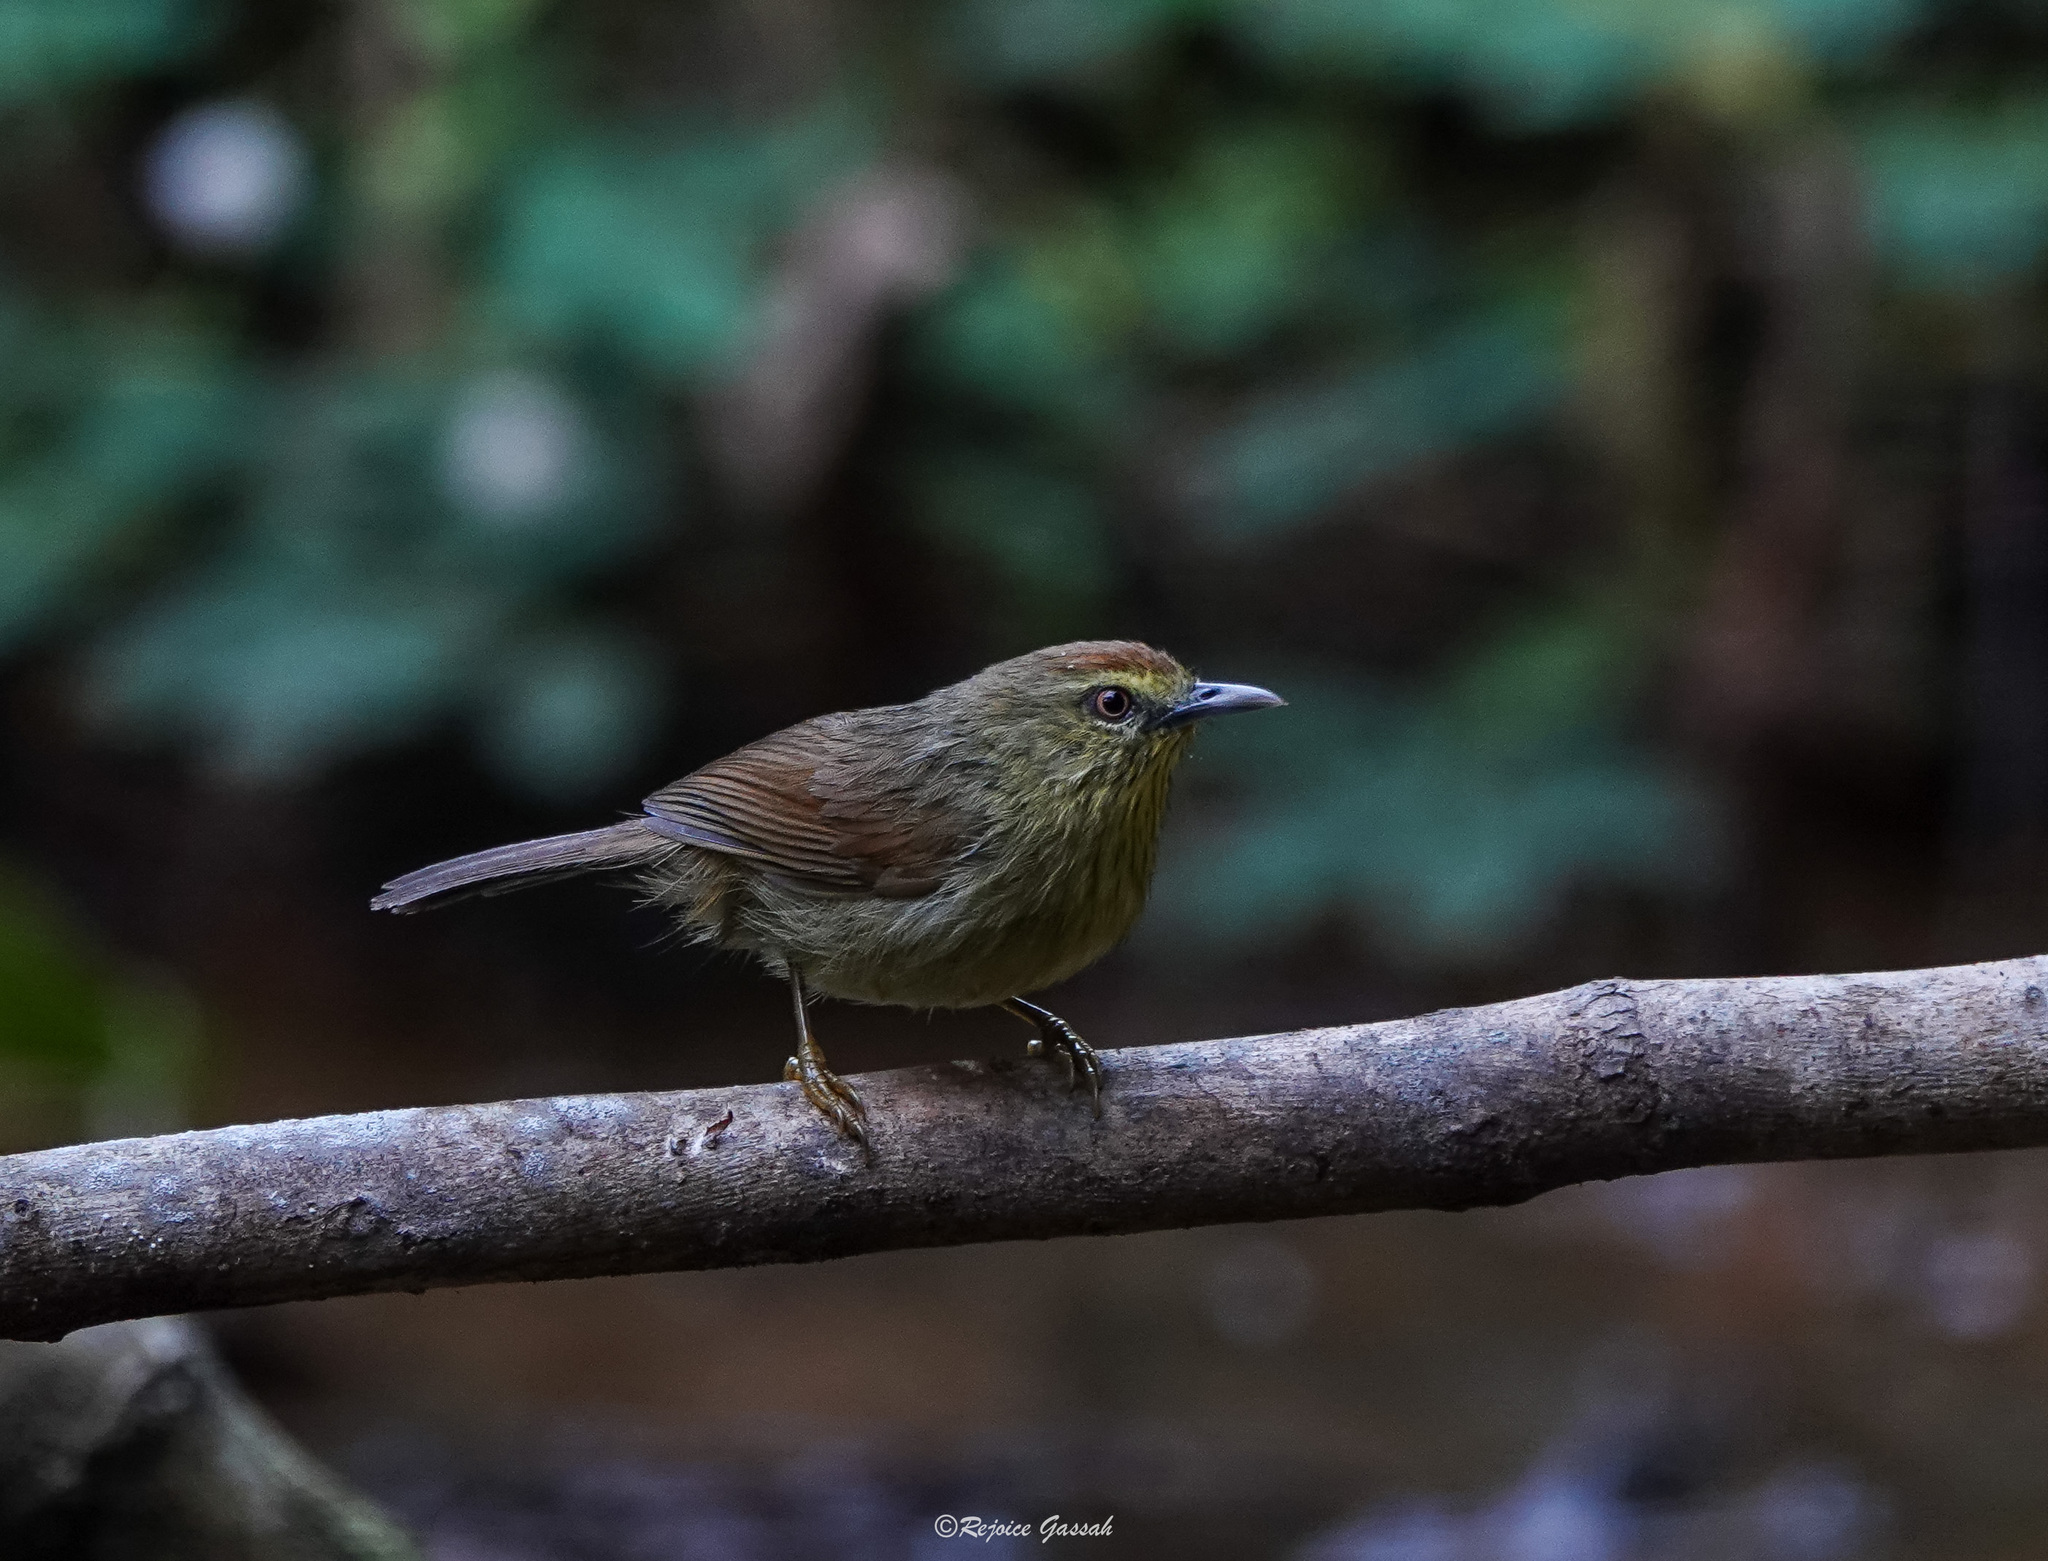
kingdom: Animalia
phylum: Chordata
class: Aves
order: Passeriformes
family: Timaliidae
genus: Macronus
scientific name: Macronus gularis
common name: Striped tit-babbler
